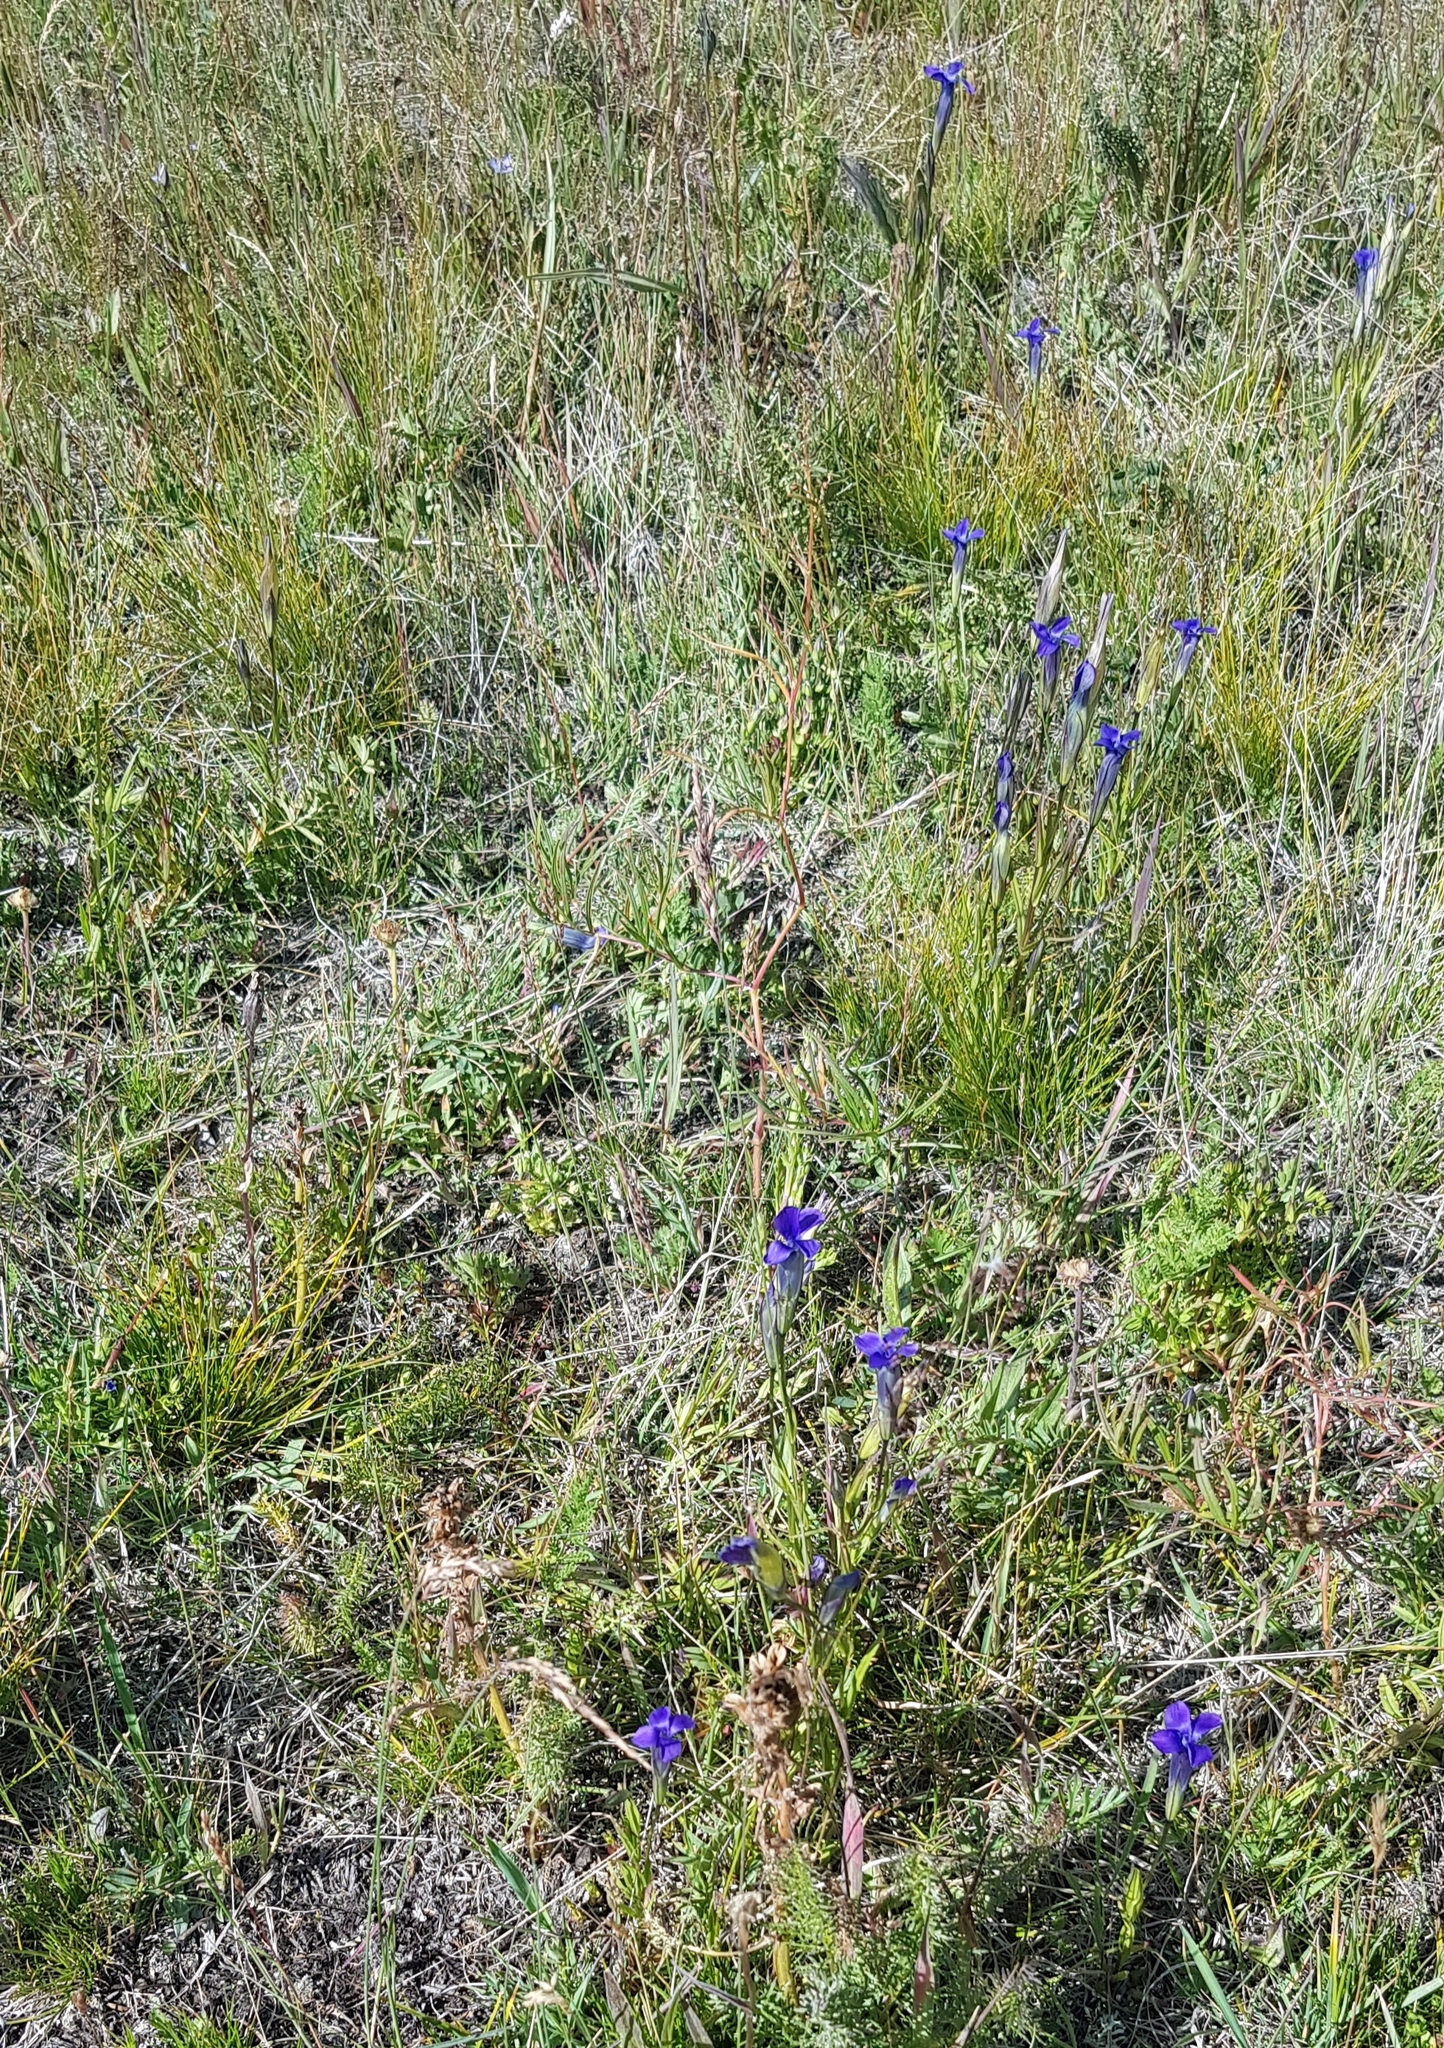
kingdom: Plantae
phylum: Tracheophyta
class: Magnoliopsida
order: Gentianales
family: Gentianaceae
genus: Gentianopsis
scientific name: Gentianopsis barbata
